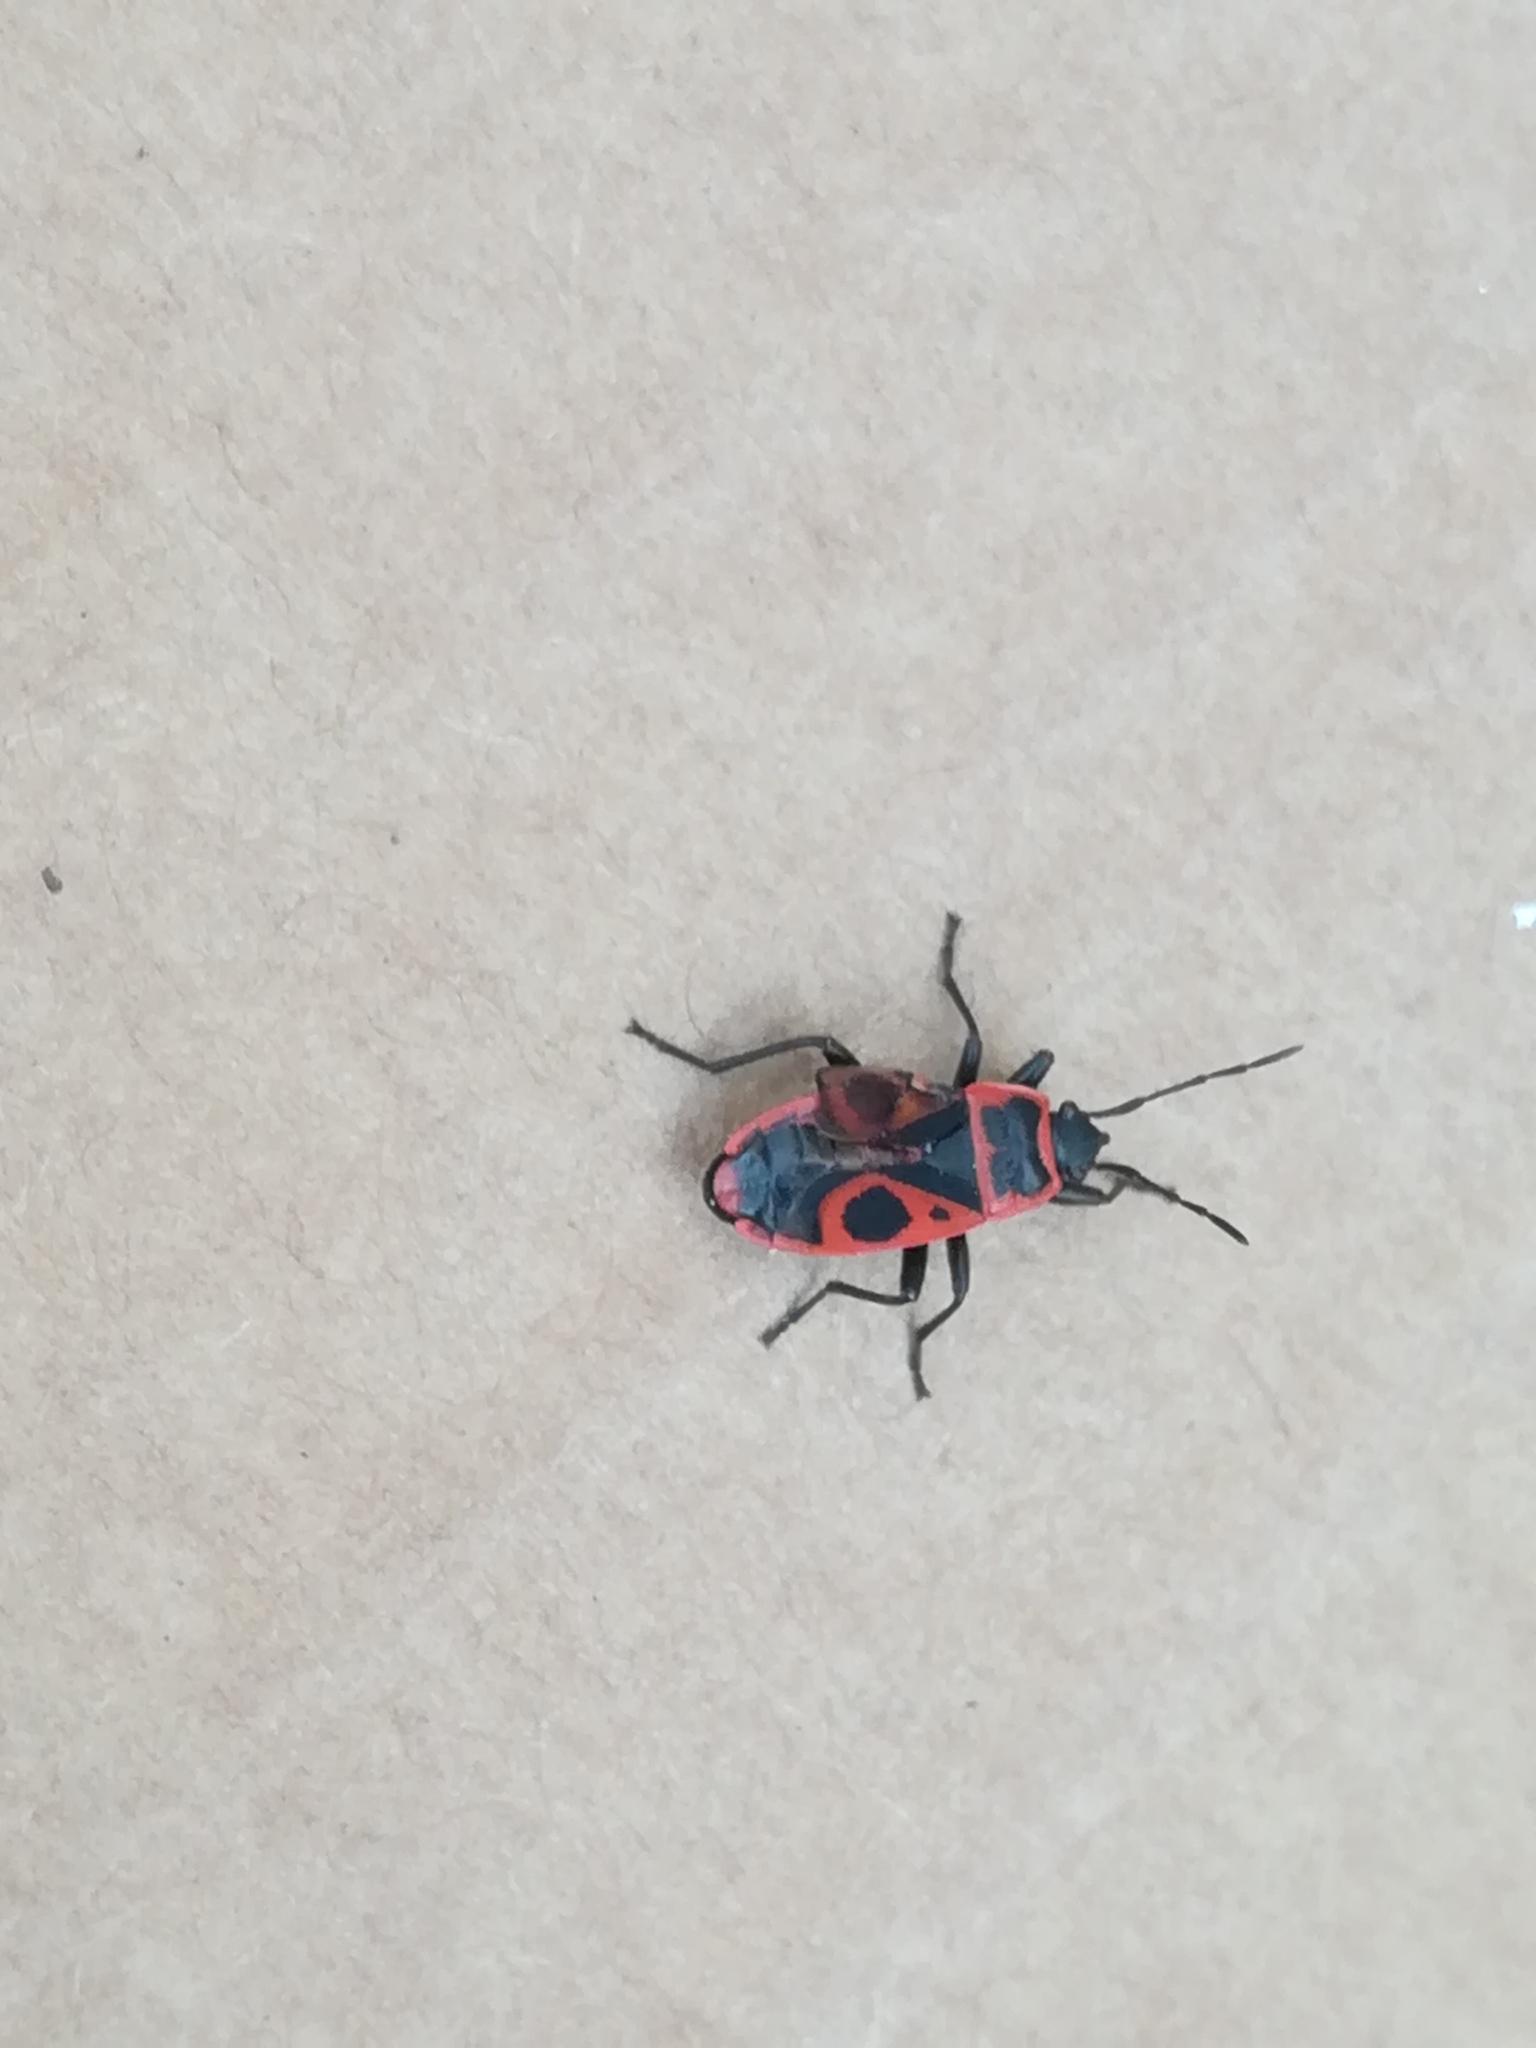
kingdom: Animalia
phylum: Arthropoda
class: Insecta
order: Hemiptera
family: Pyrrhocoridae
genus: Pyrrhocoris
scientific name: Pyrrhocoris apterus
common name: Firebug
